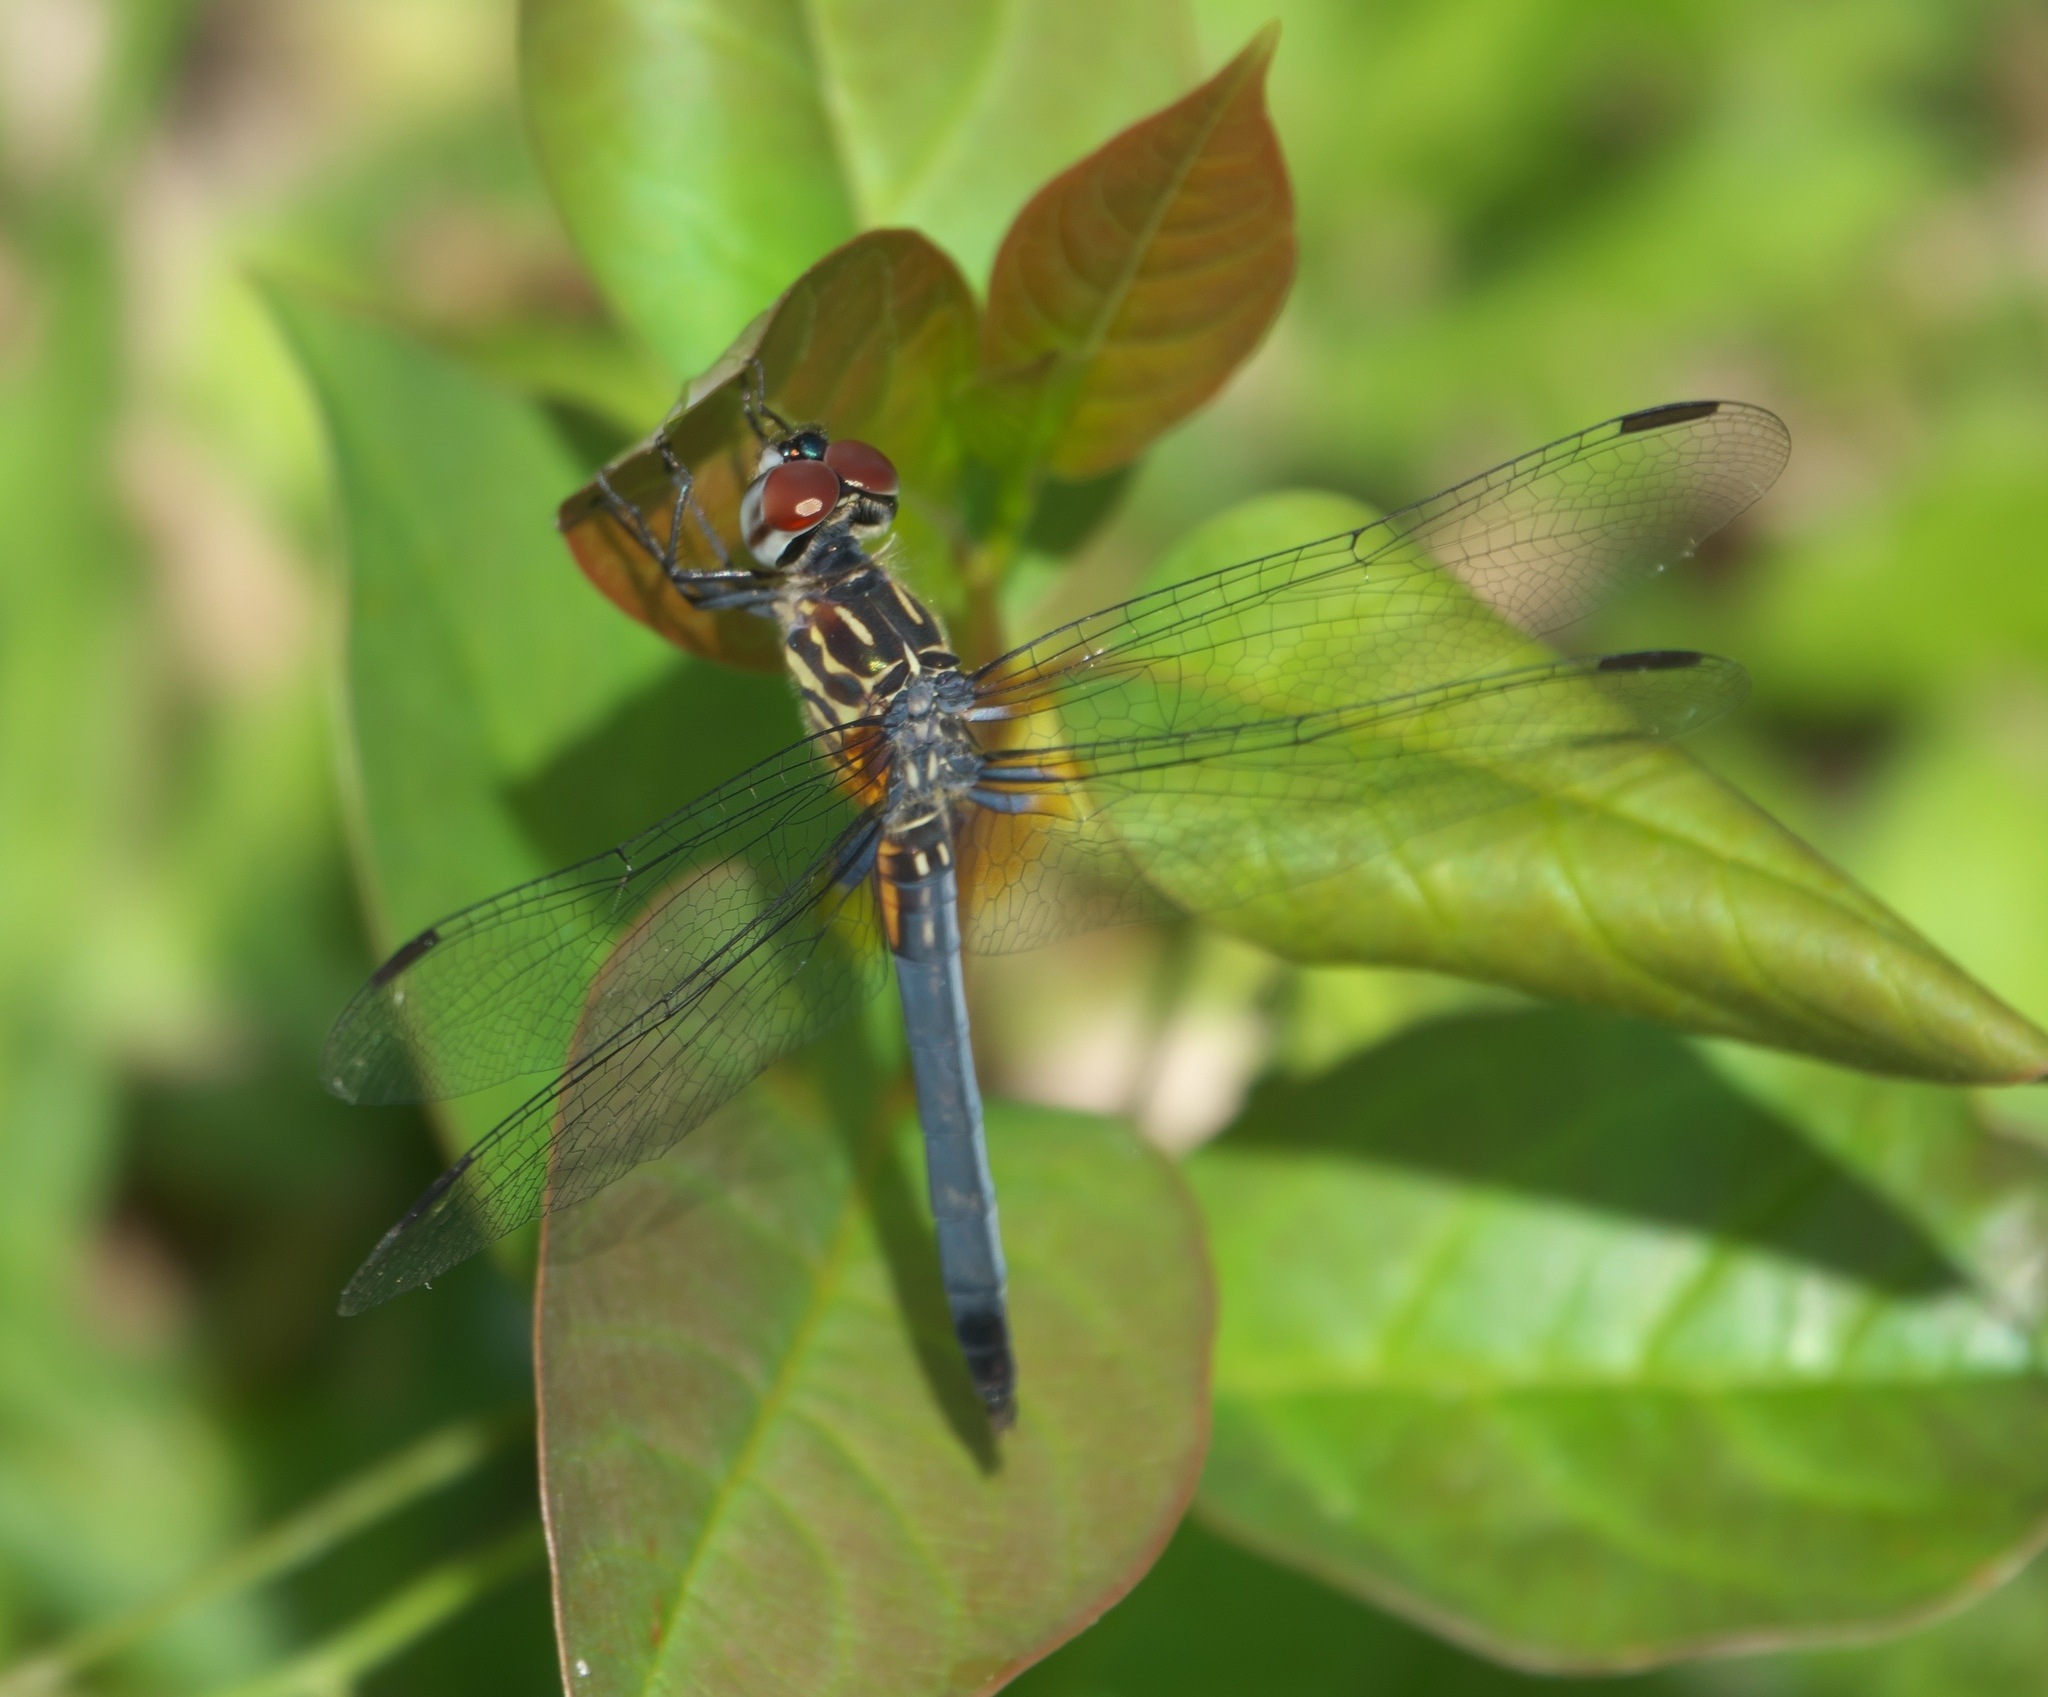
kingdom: Animalia
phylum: Arthropoda
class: Insecta
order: Odonata
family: Libellulidae
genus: Pachydiplax
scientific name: Pachydiplax longipennis
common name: Blue dasher
